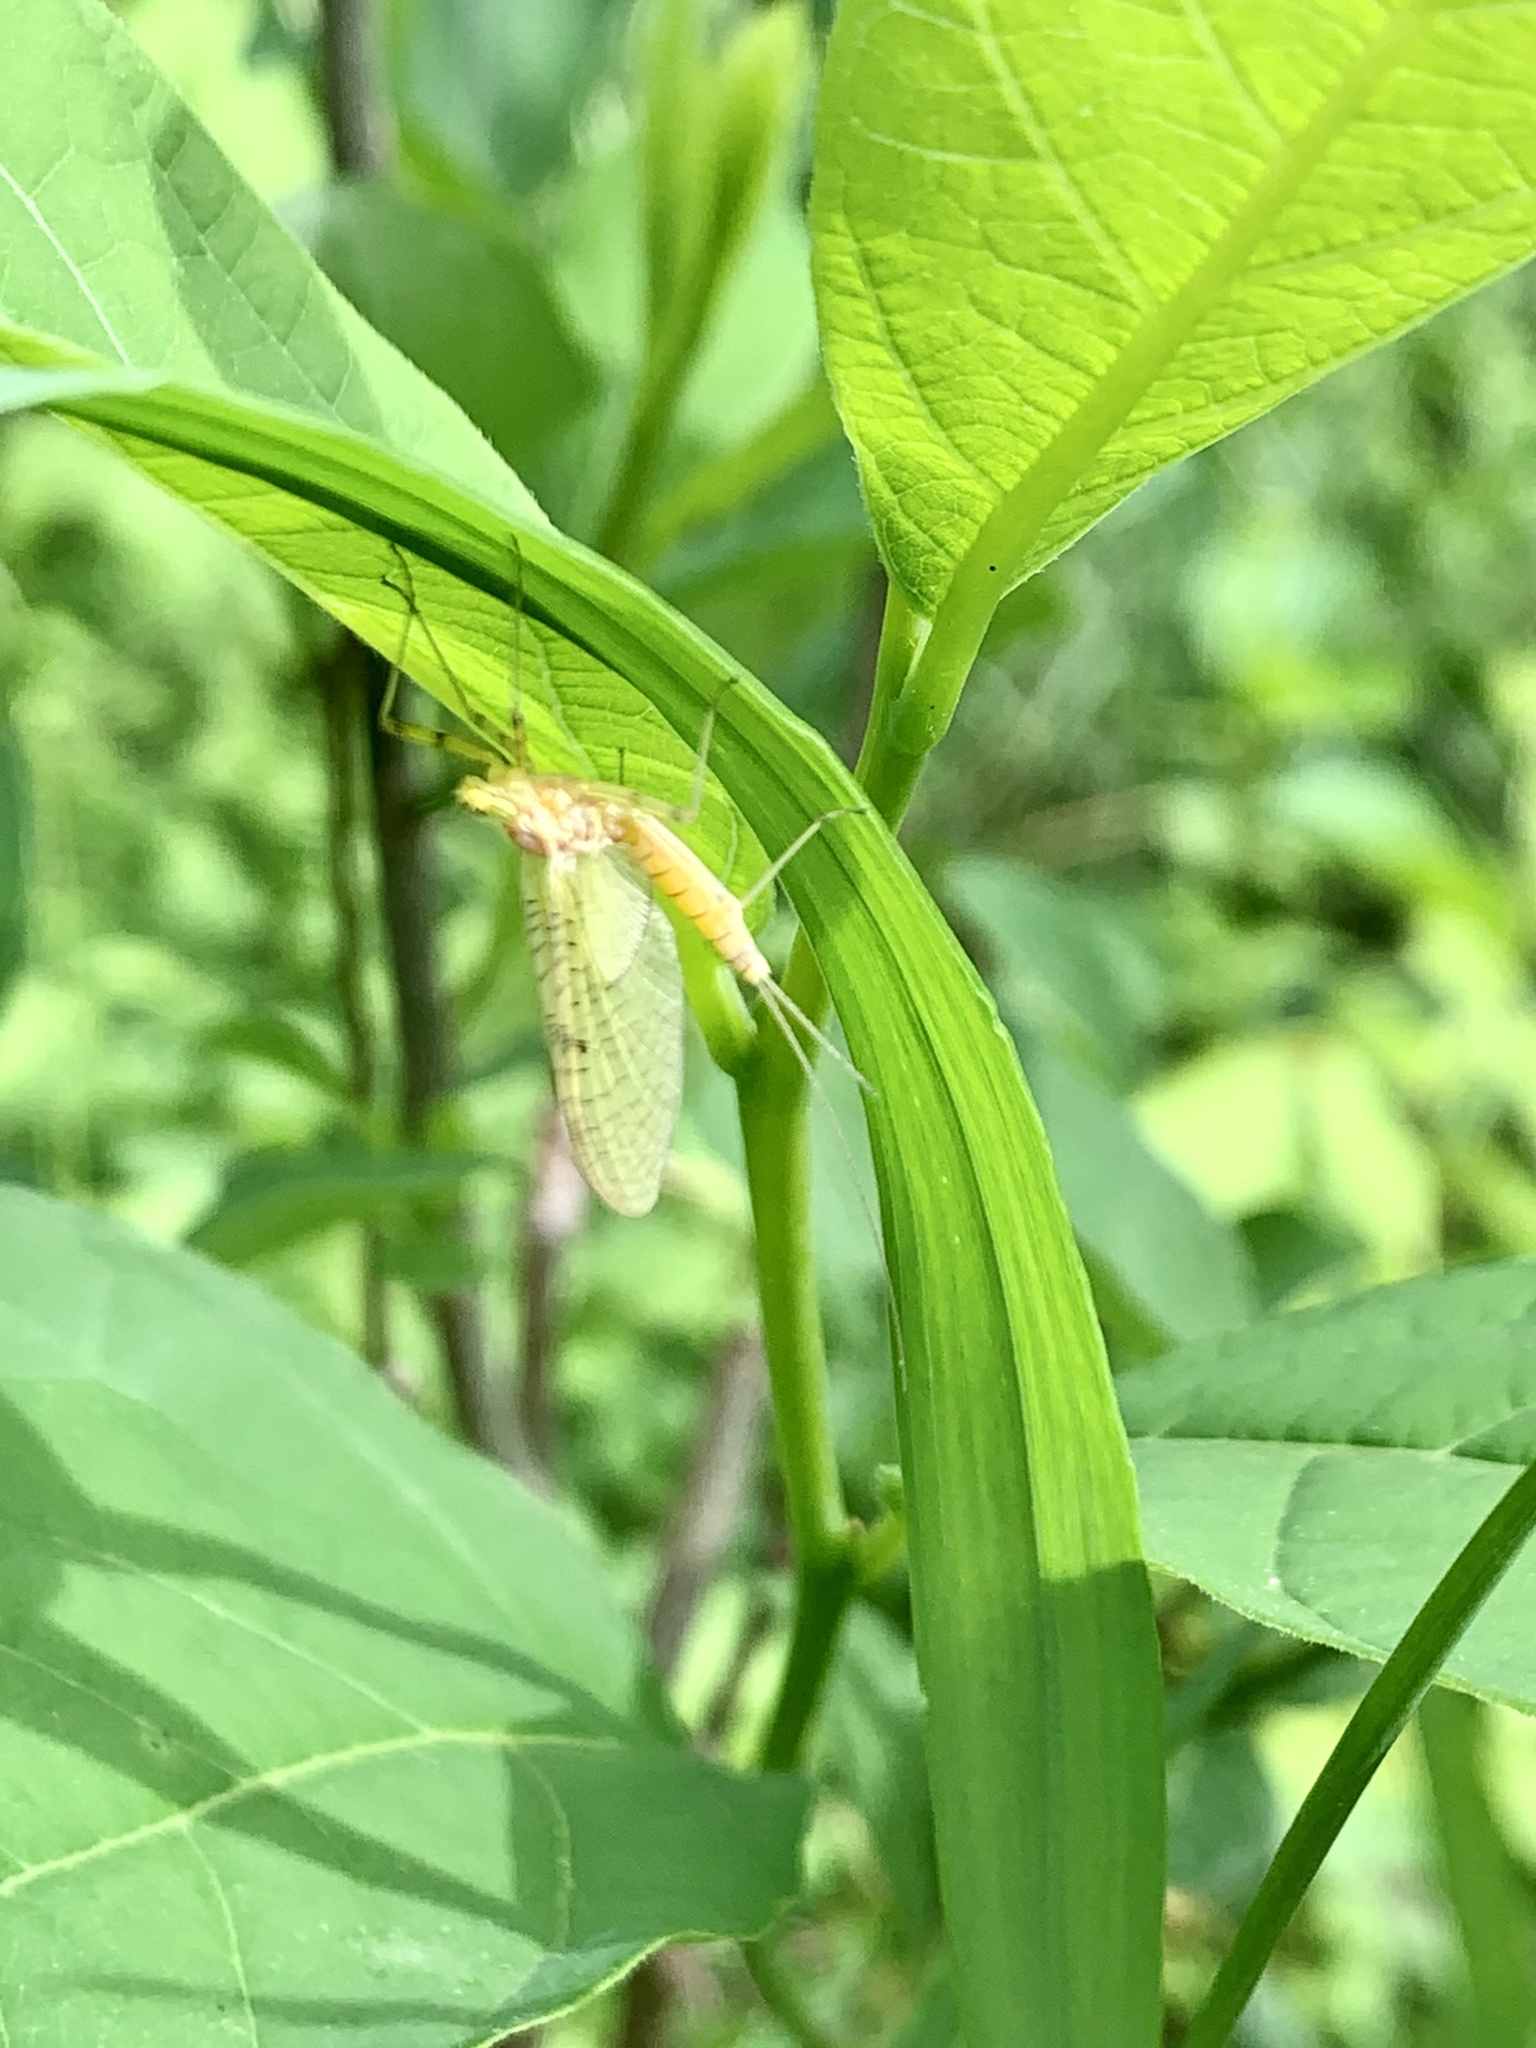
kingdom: Animalia
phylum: Arthropoda
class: Insecta
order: Ephemeroptera
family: Heptageniidae
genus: Stenacron
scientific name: Stenacron interpunctatum
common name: Orange cahill
